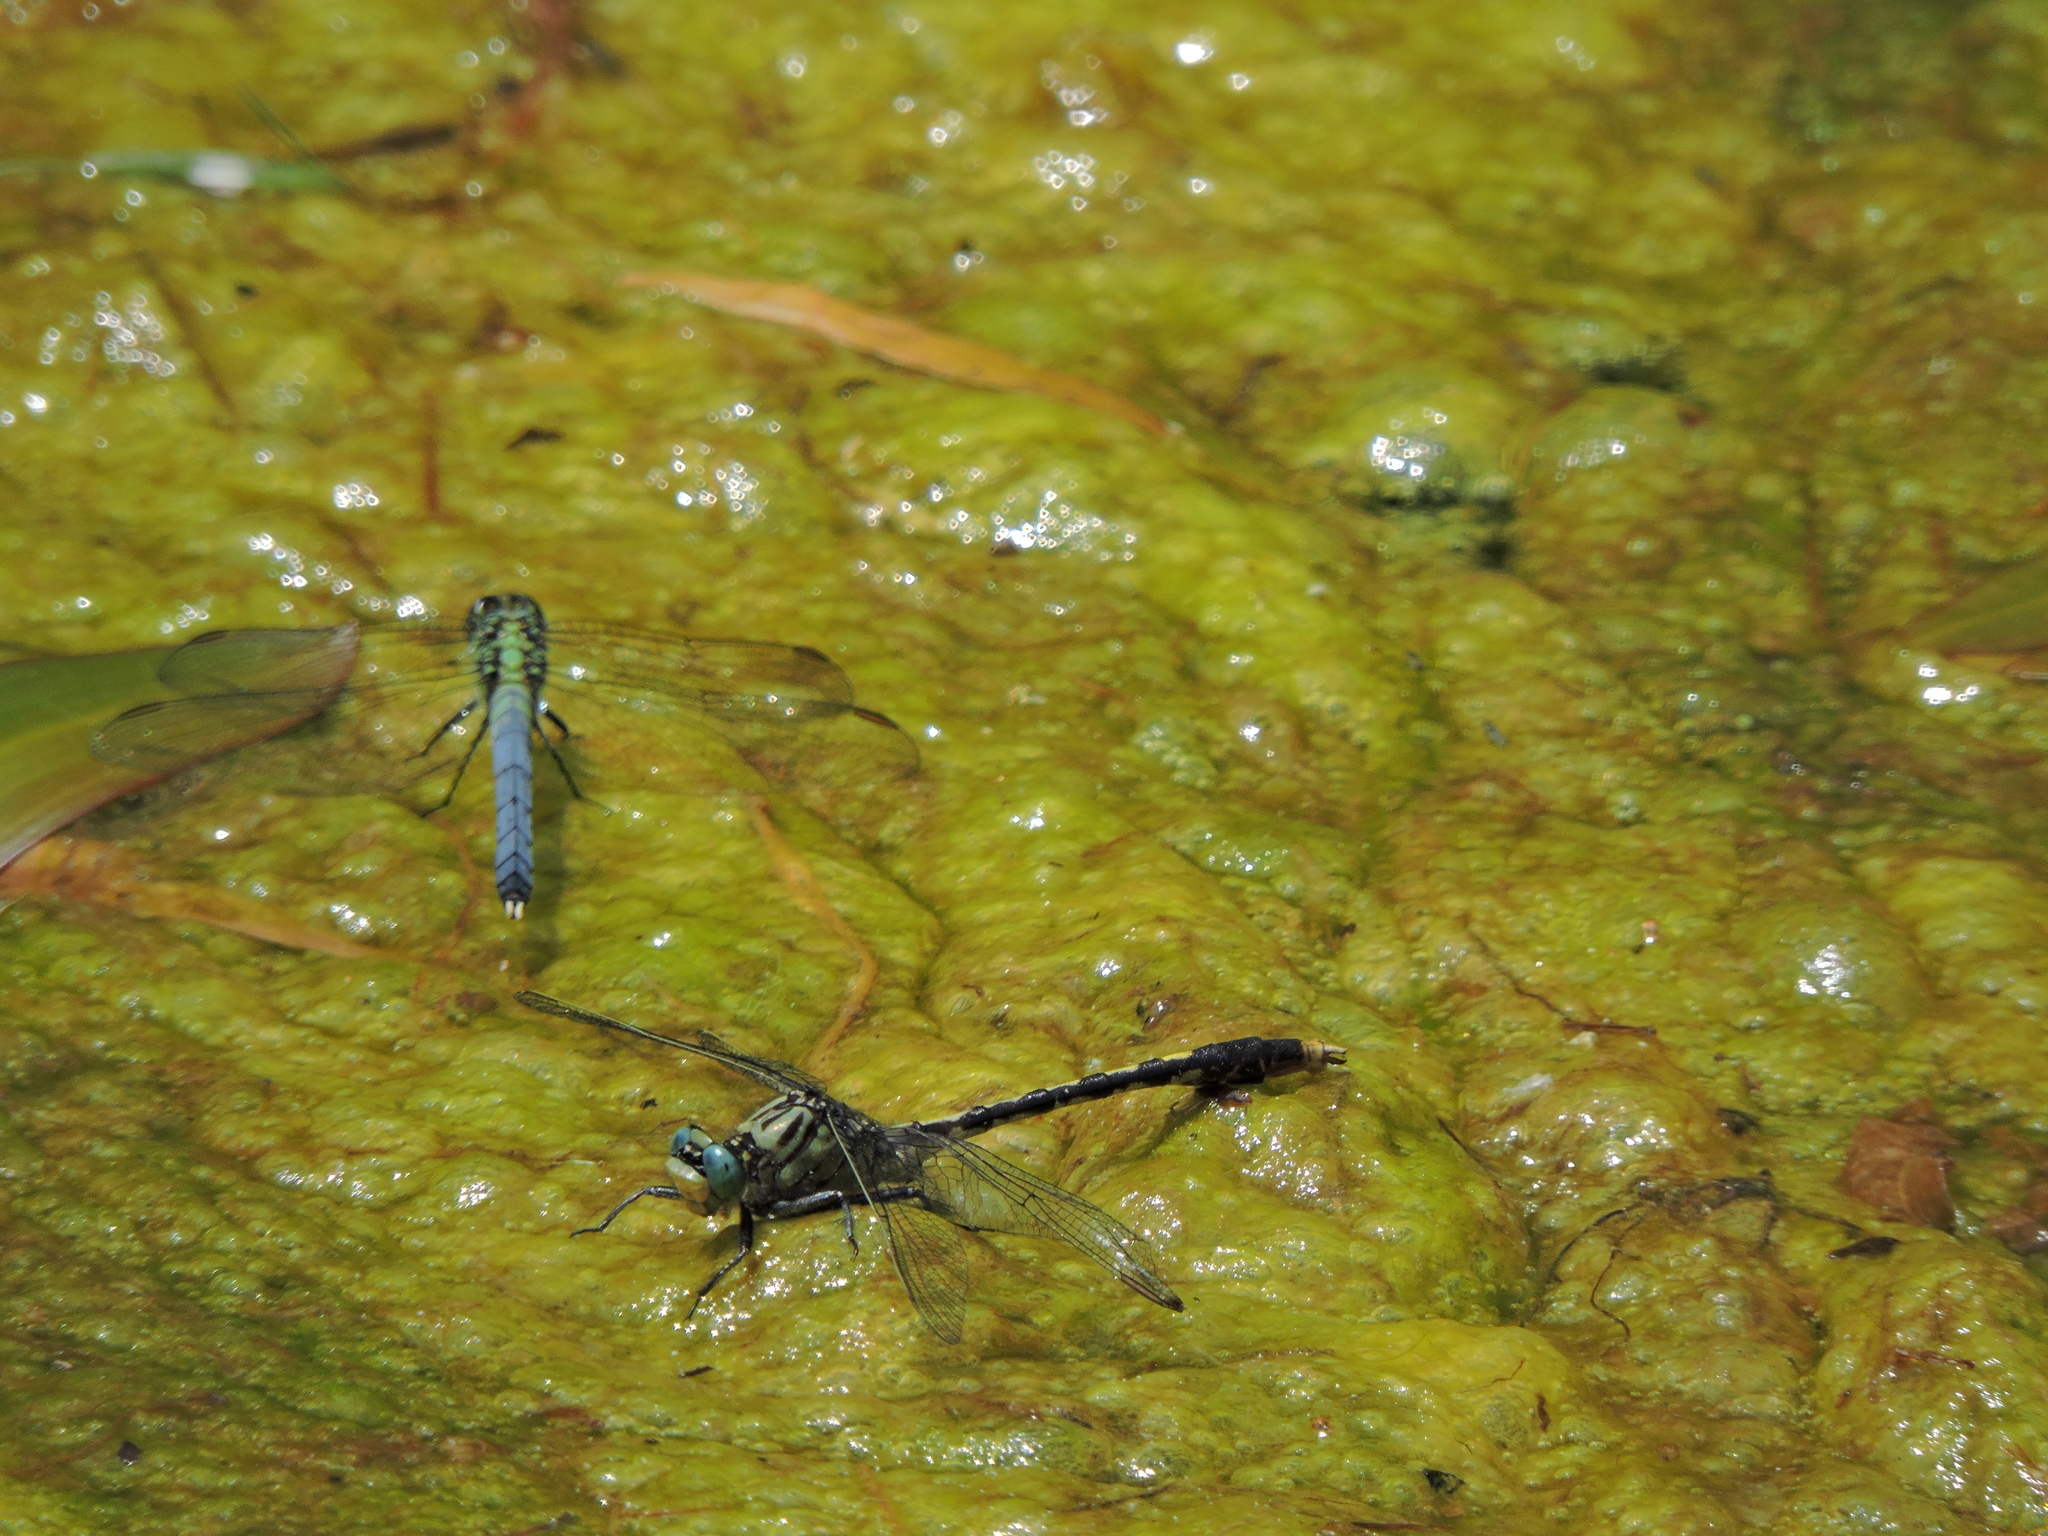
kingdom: Animalia
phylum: Arthropoda
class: Insecta
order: Odonata
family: Gomphidae
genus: Arigomphus
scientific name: Arigomphus villosipes
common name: Unicorn clubtail
